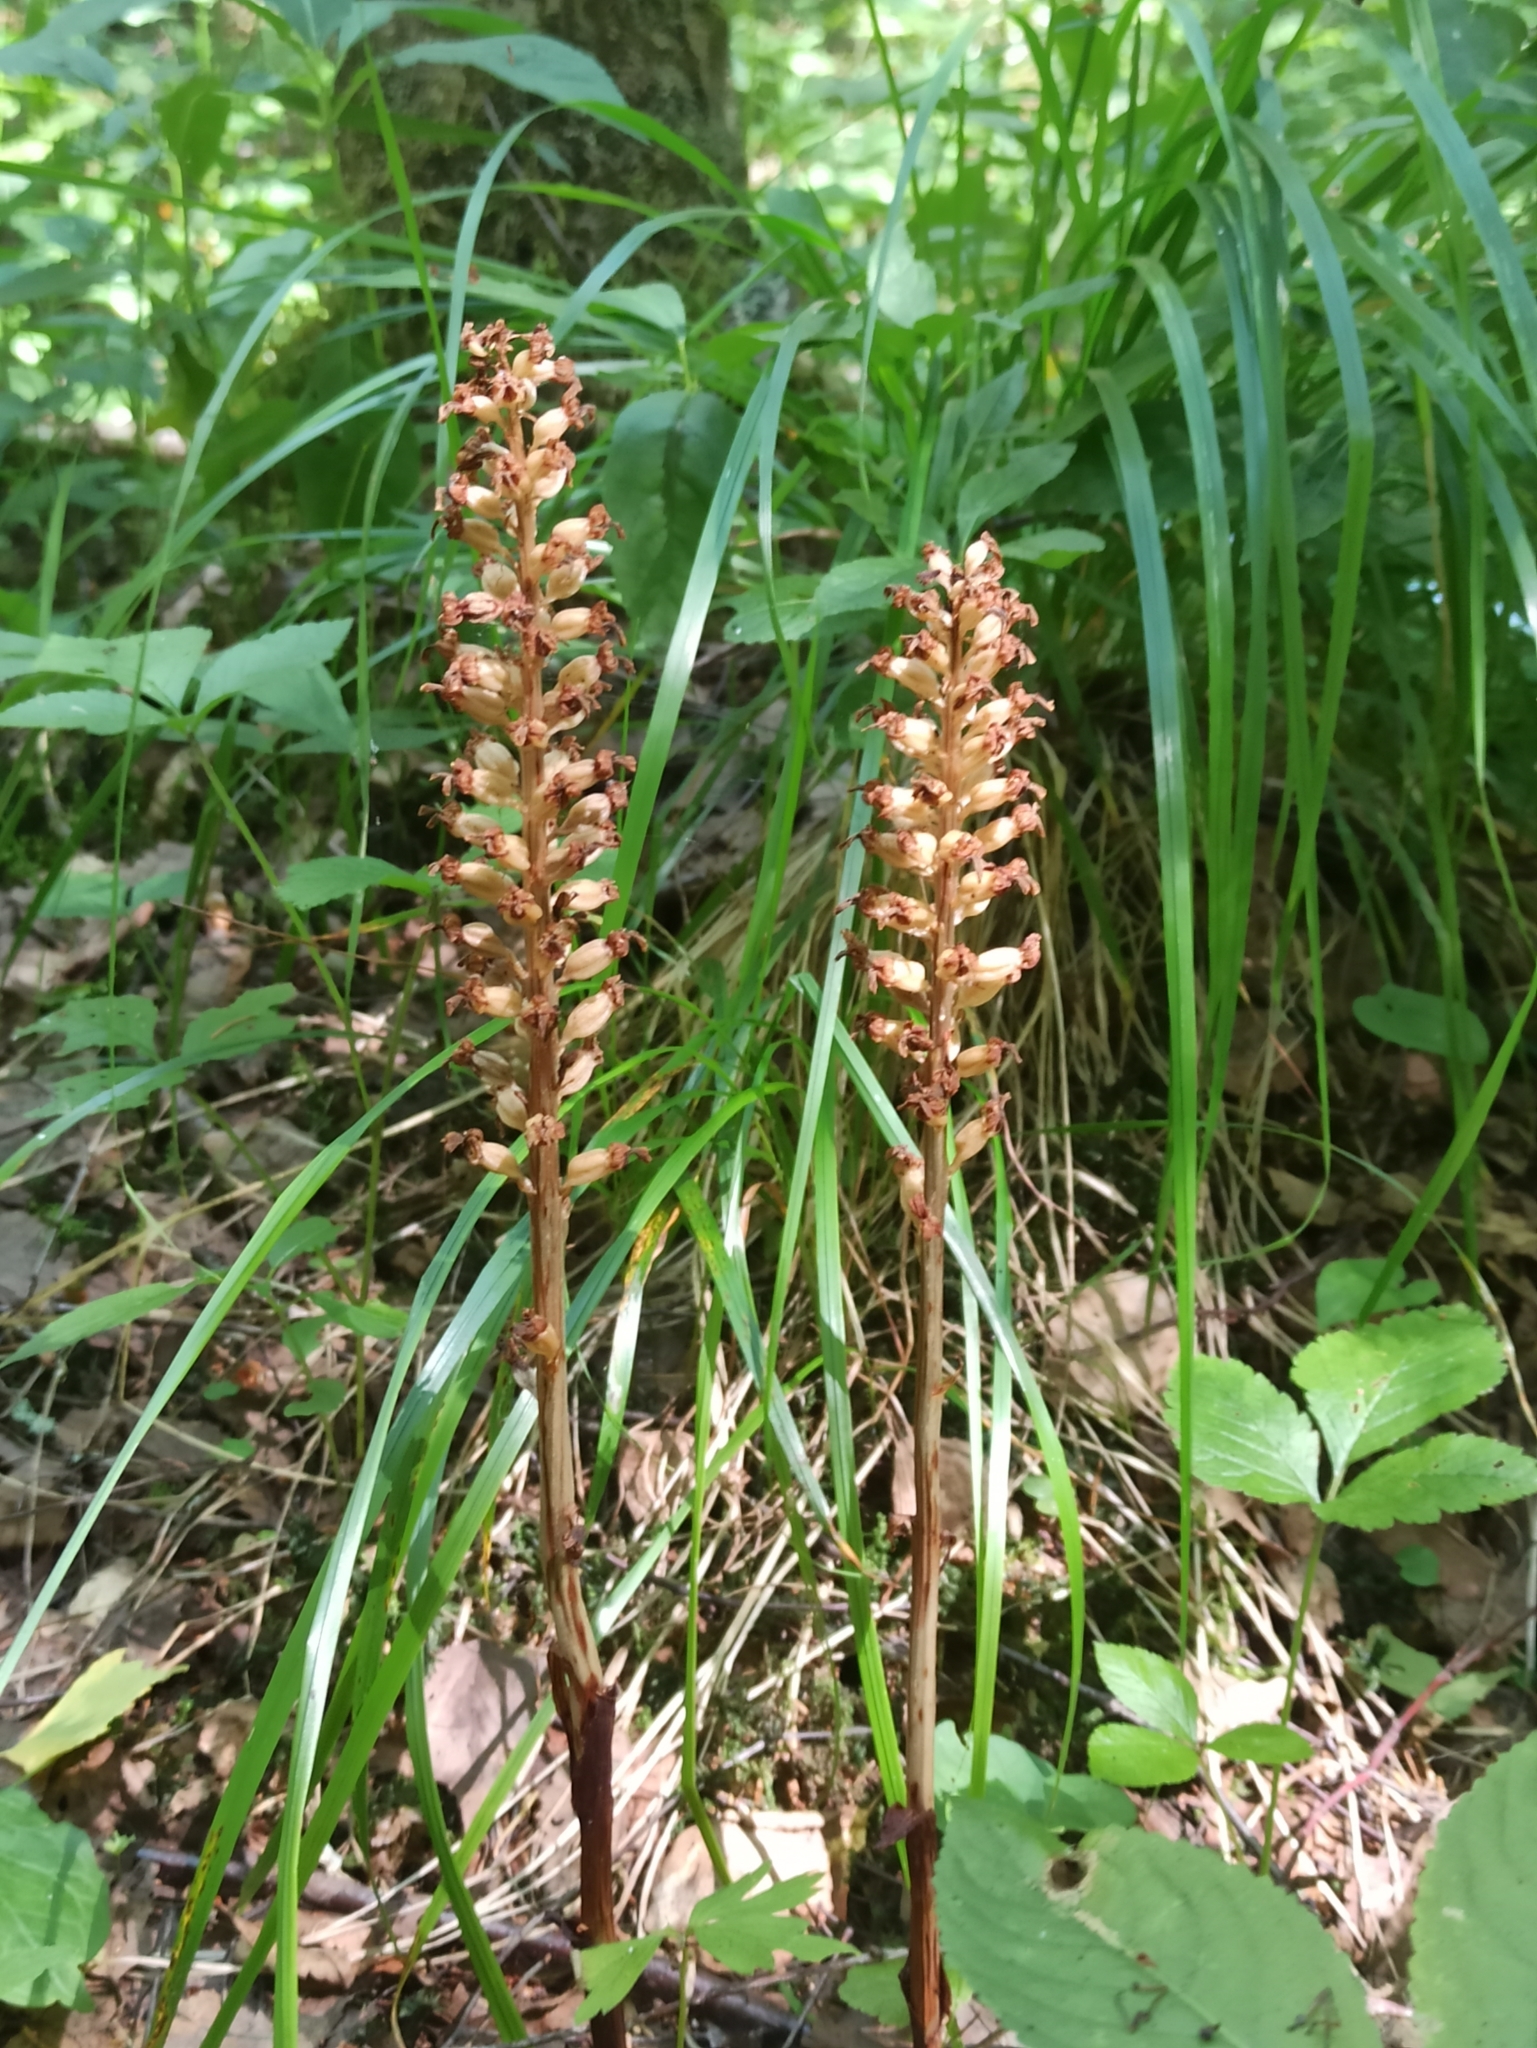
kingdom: Plantae
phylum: Tracheophyta
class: Liliopsida
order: Asparagales
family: Orchidaceae
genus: Neottia
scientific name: Neottia nidus-avis
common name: Bird's-nest orchid
